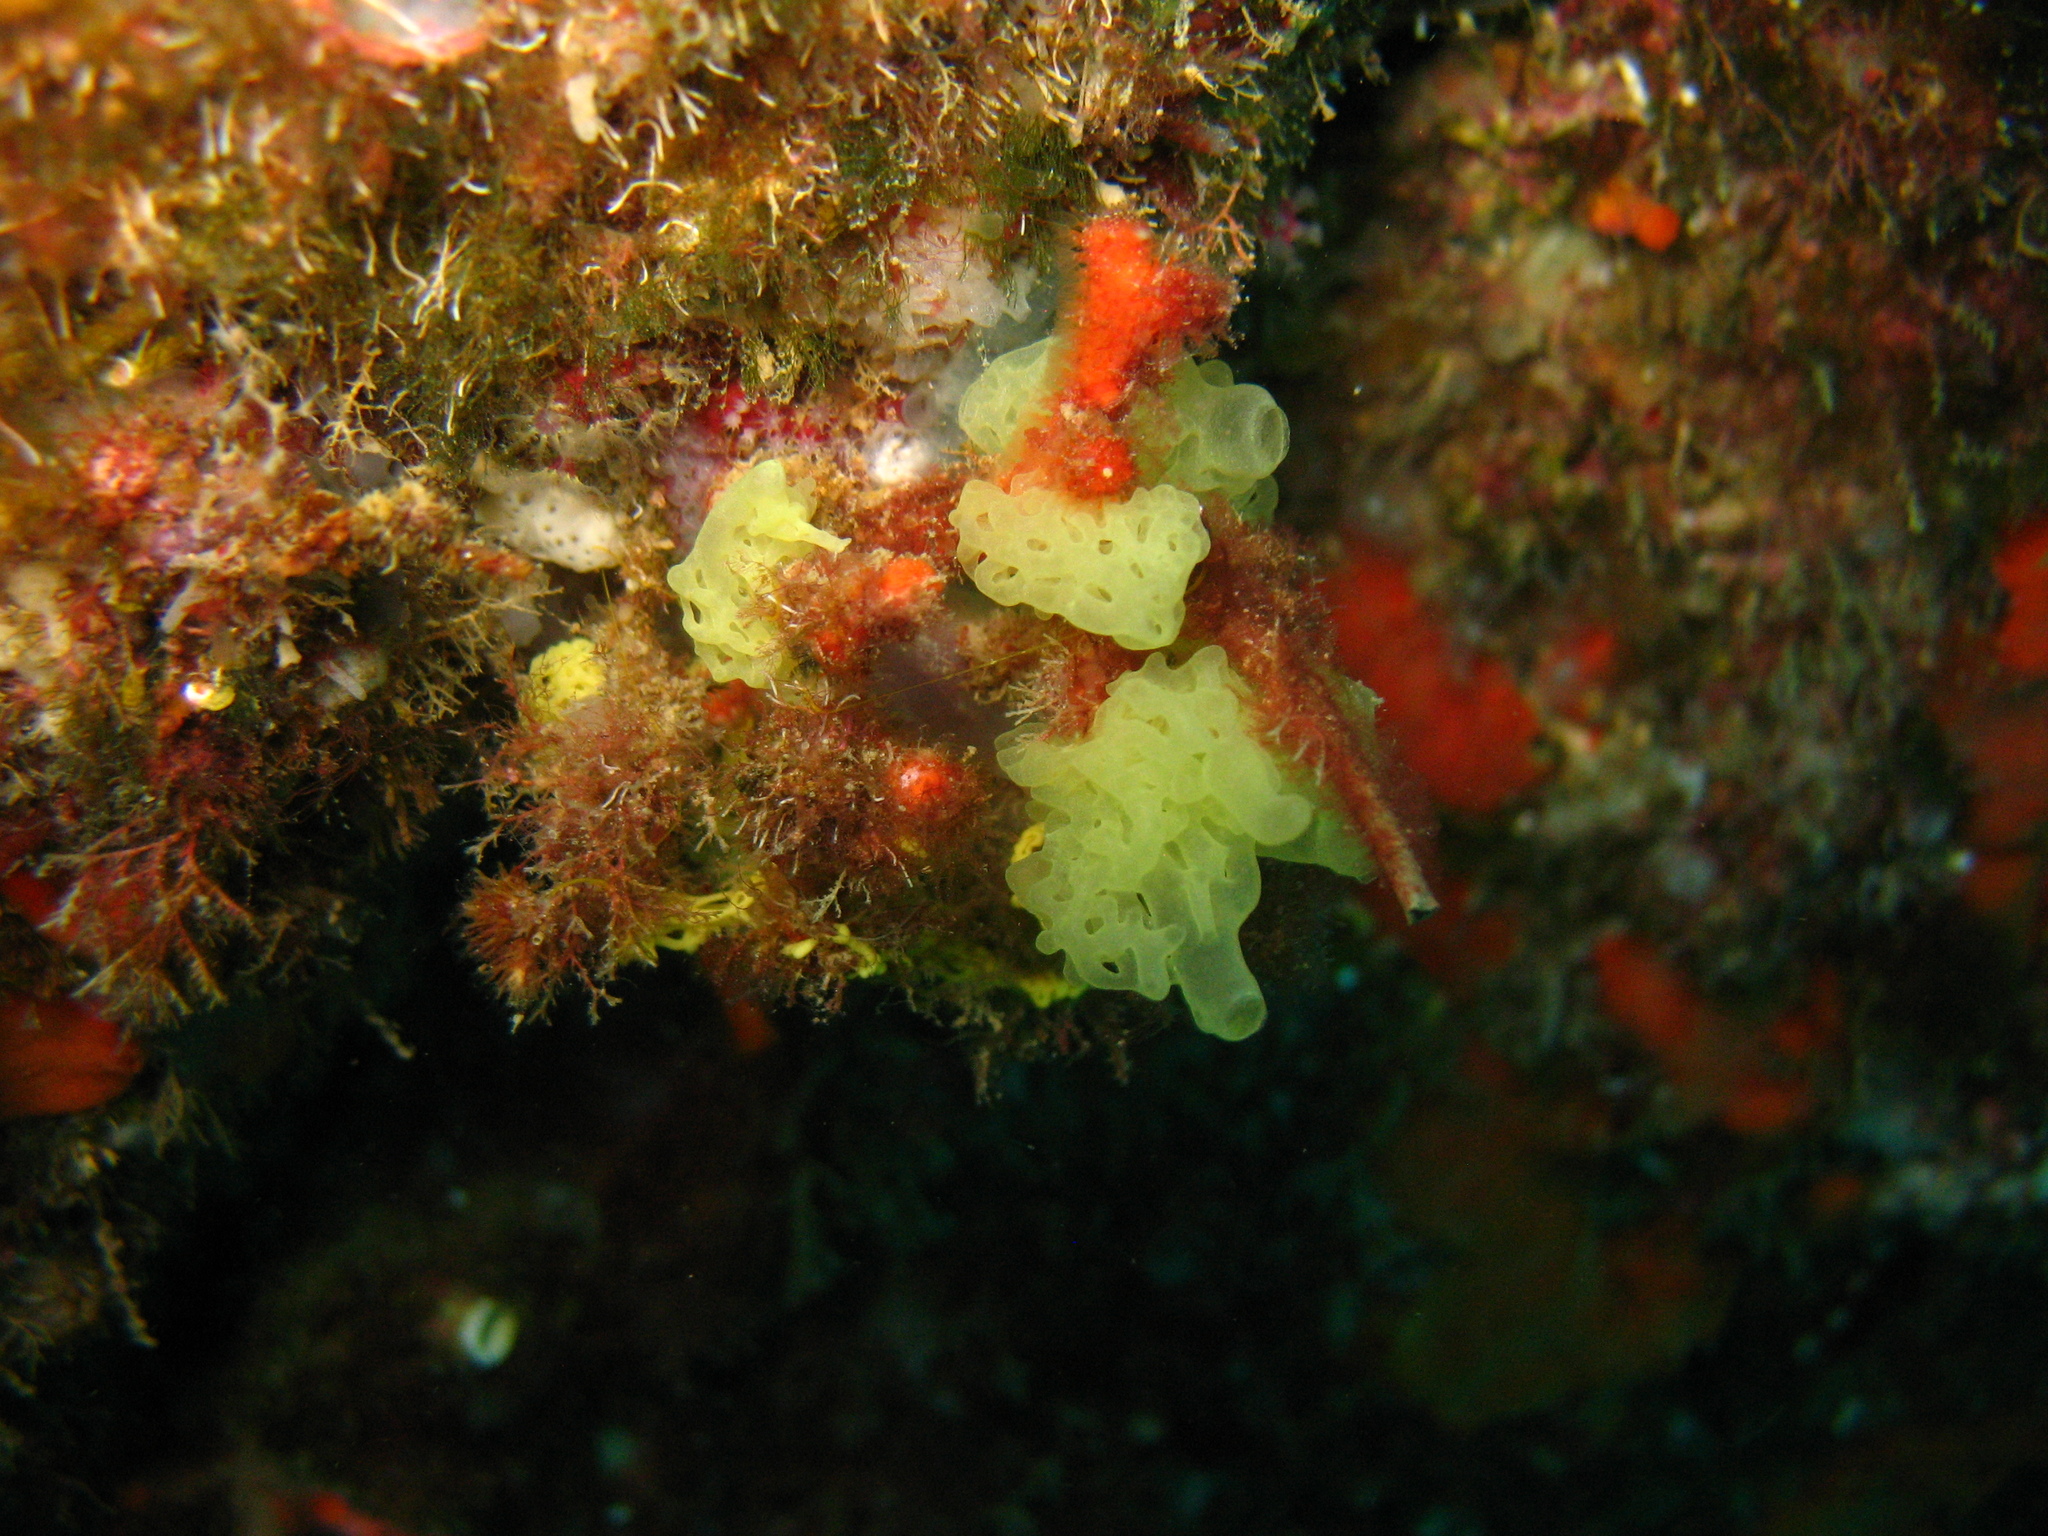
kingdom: Animalia
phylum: Porifera
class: Calcarea
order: Clathrinida
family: Clathrinidae
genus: Clathrina
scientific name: Clathrina clathrus
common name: Yellow clathrina
